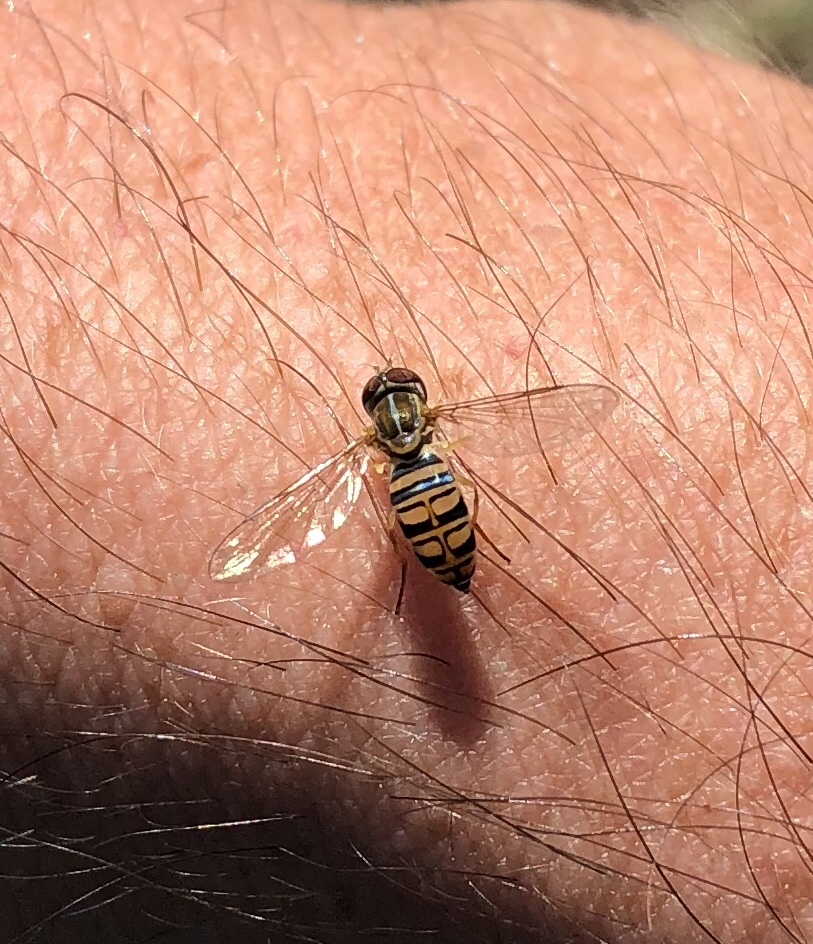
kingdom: Animalia
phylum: Arthropoda
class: Insecta
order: Diptera
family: Syrphidae
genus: Toxomerus
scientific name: Toxomerus politus
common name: Maize calligrapher
